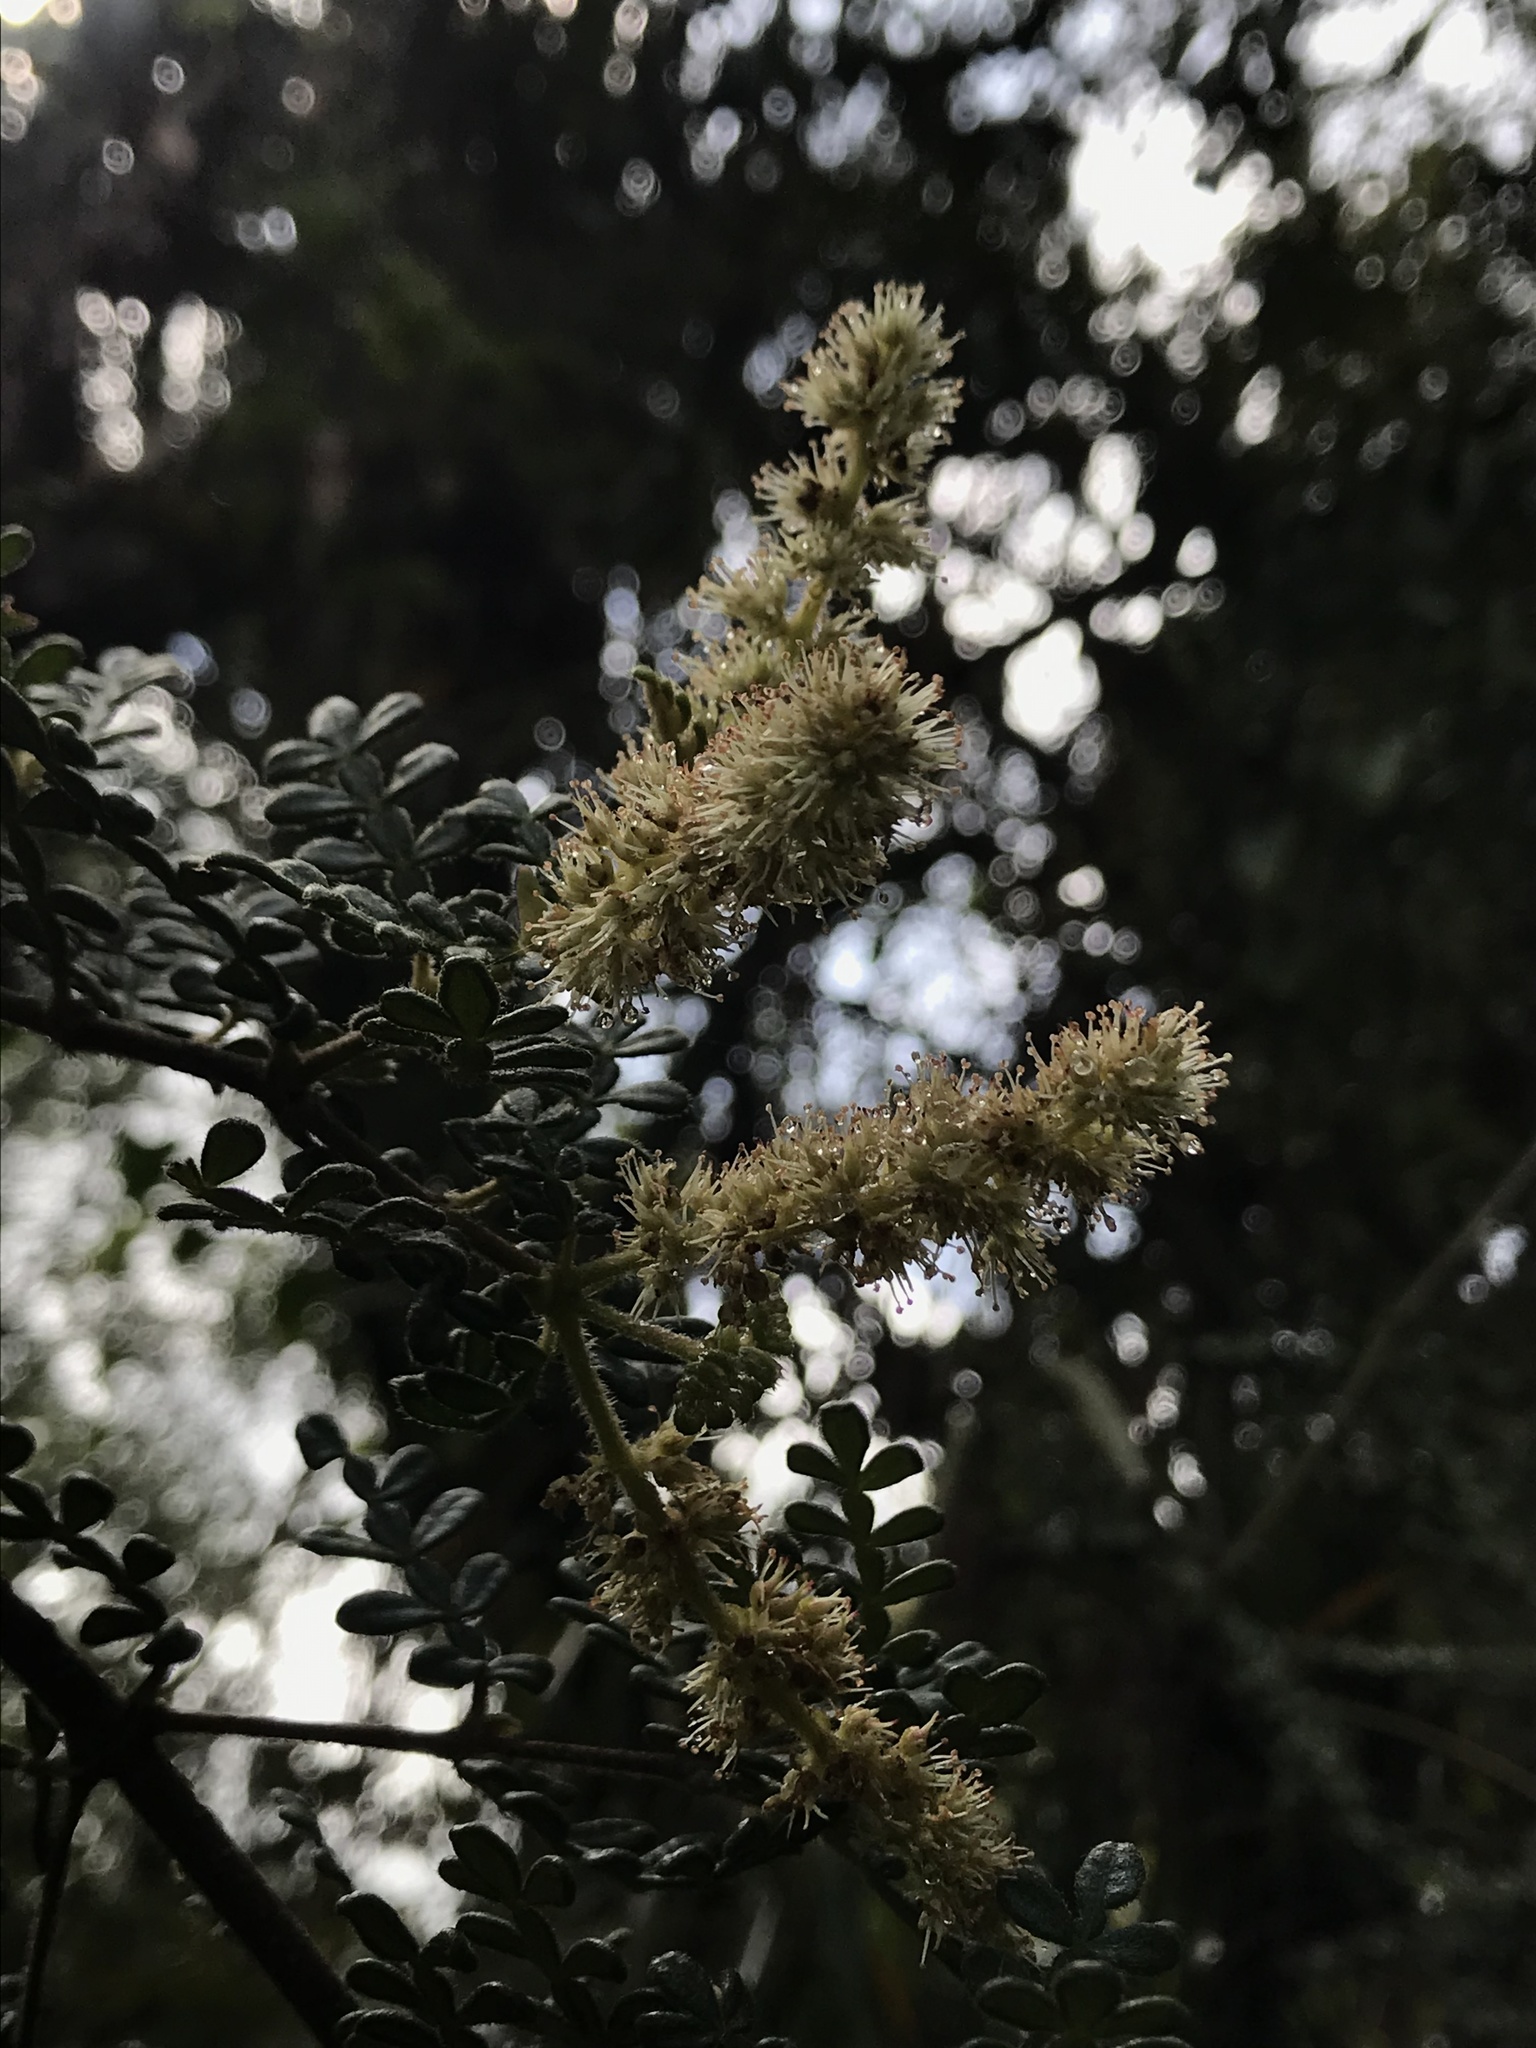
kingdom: Plantae
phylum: Tracheophyta
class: Magnoliopsida
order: Oxalidales
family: Cunoniaceae
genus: Weinmannia
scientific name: Weinmannia tomentosa
